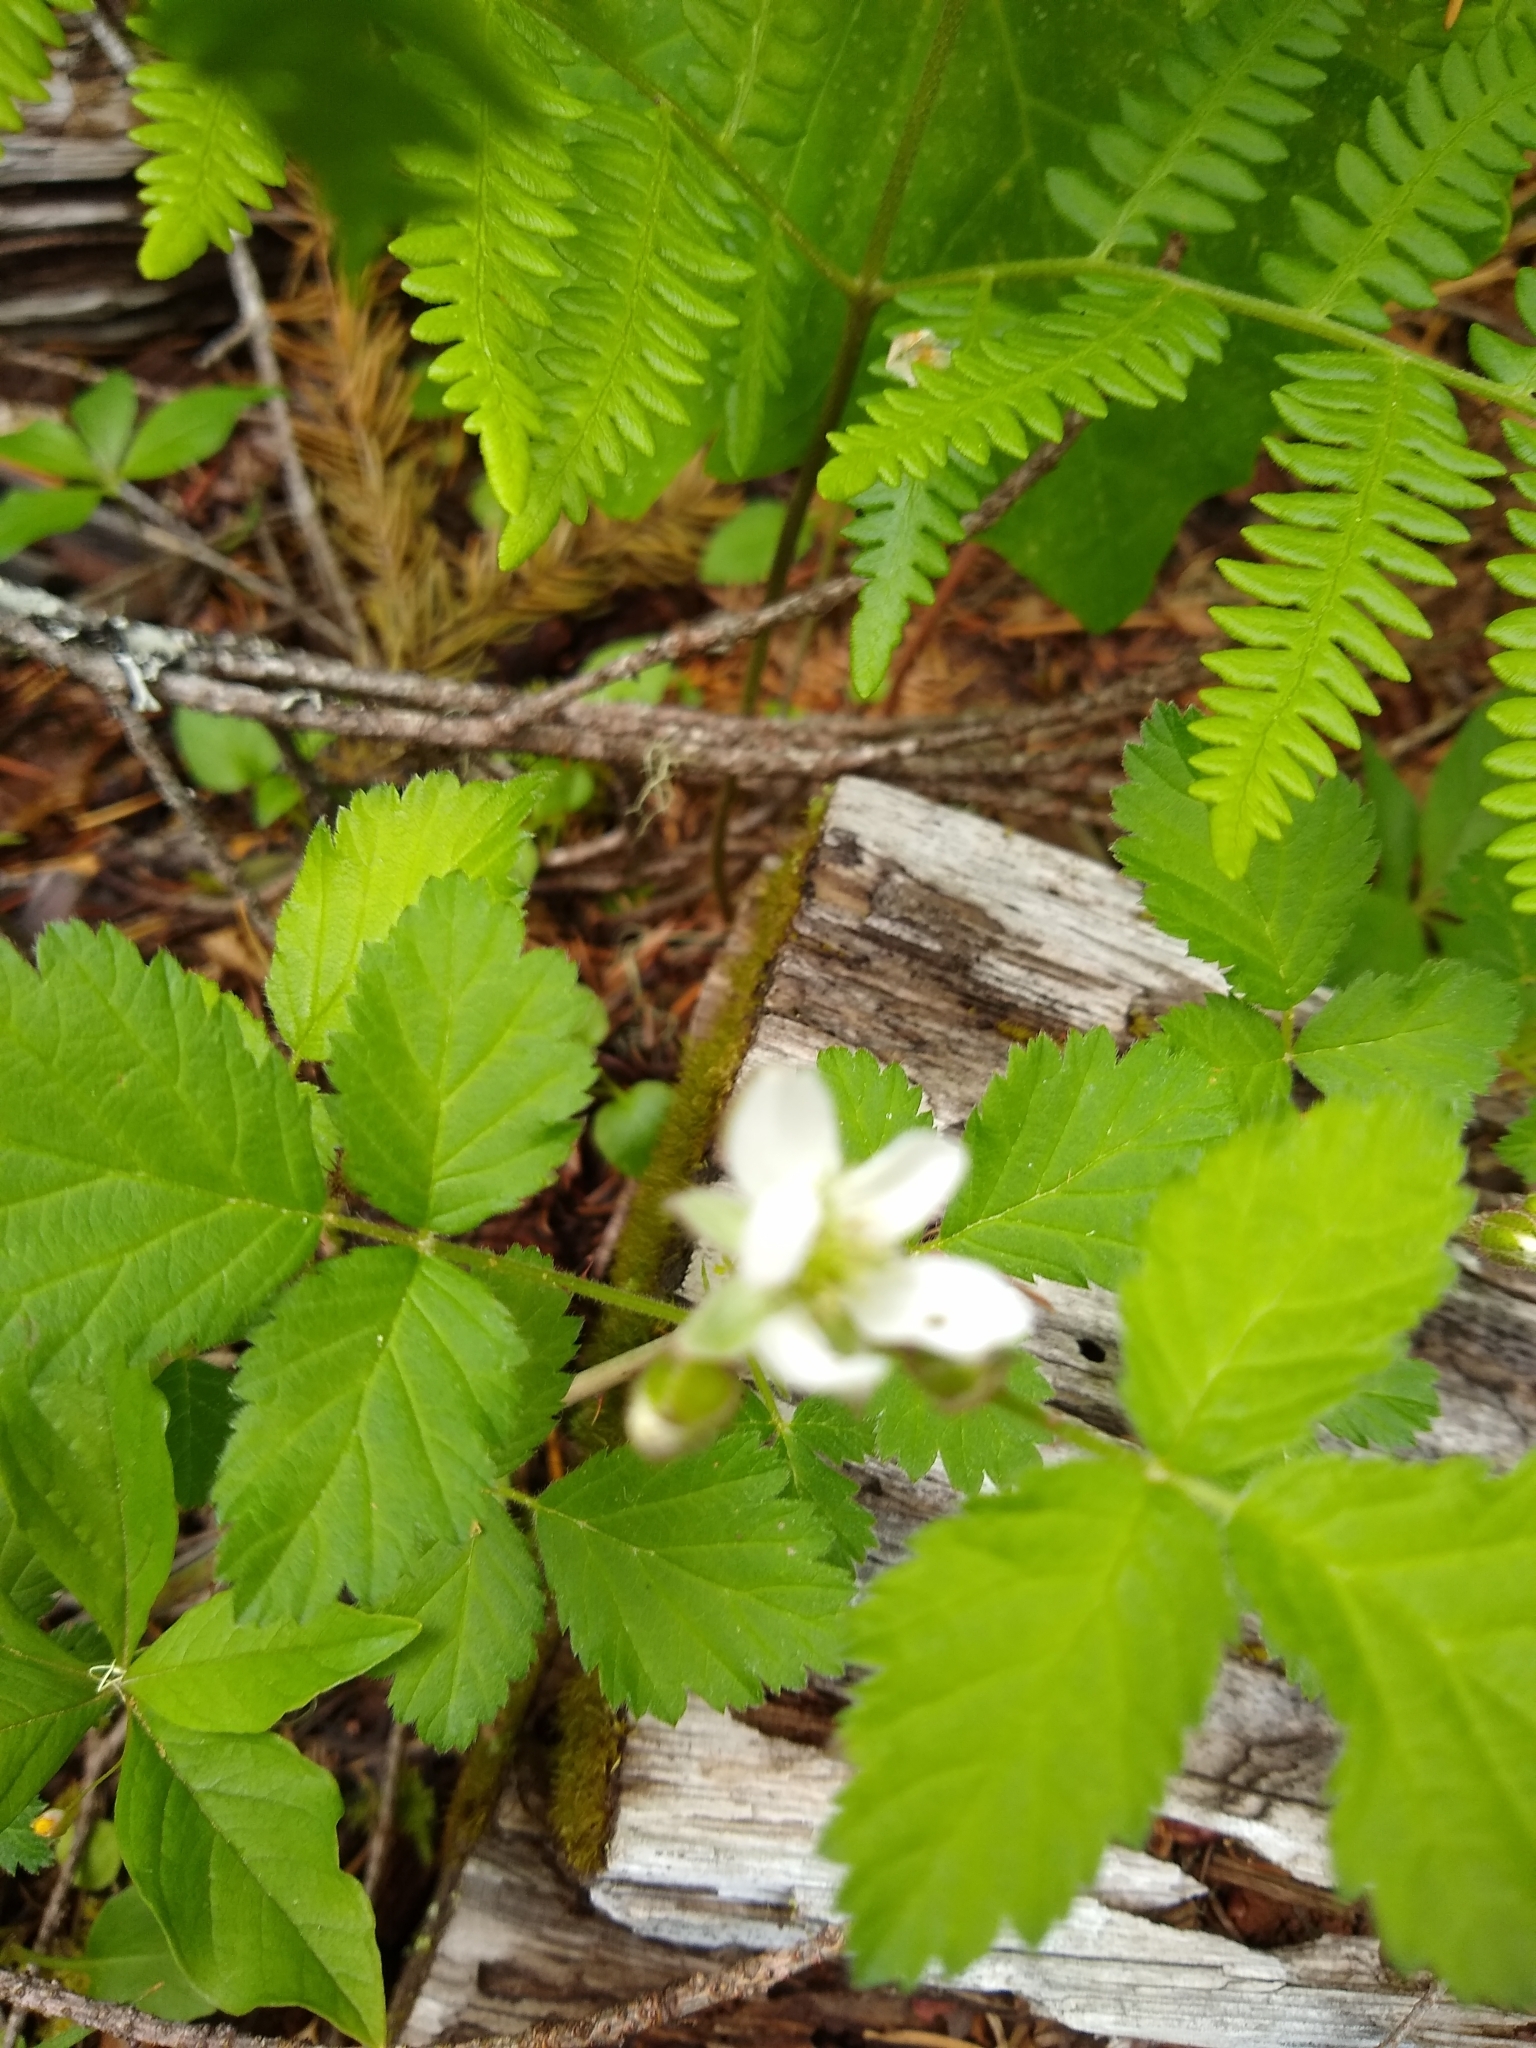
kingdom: Plantae
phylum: Tracheophyta
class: Magnoliopsida
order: Rosales
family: Rosaceae
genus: Rubus
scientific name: Rubus ursinus
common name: Pacific blackberry
